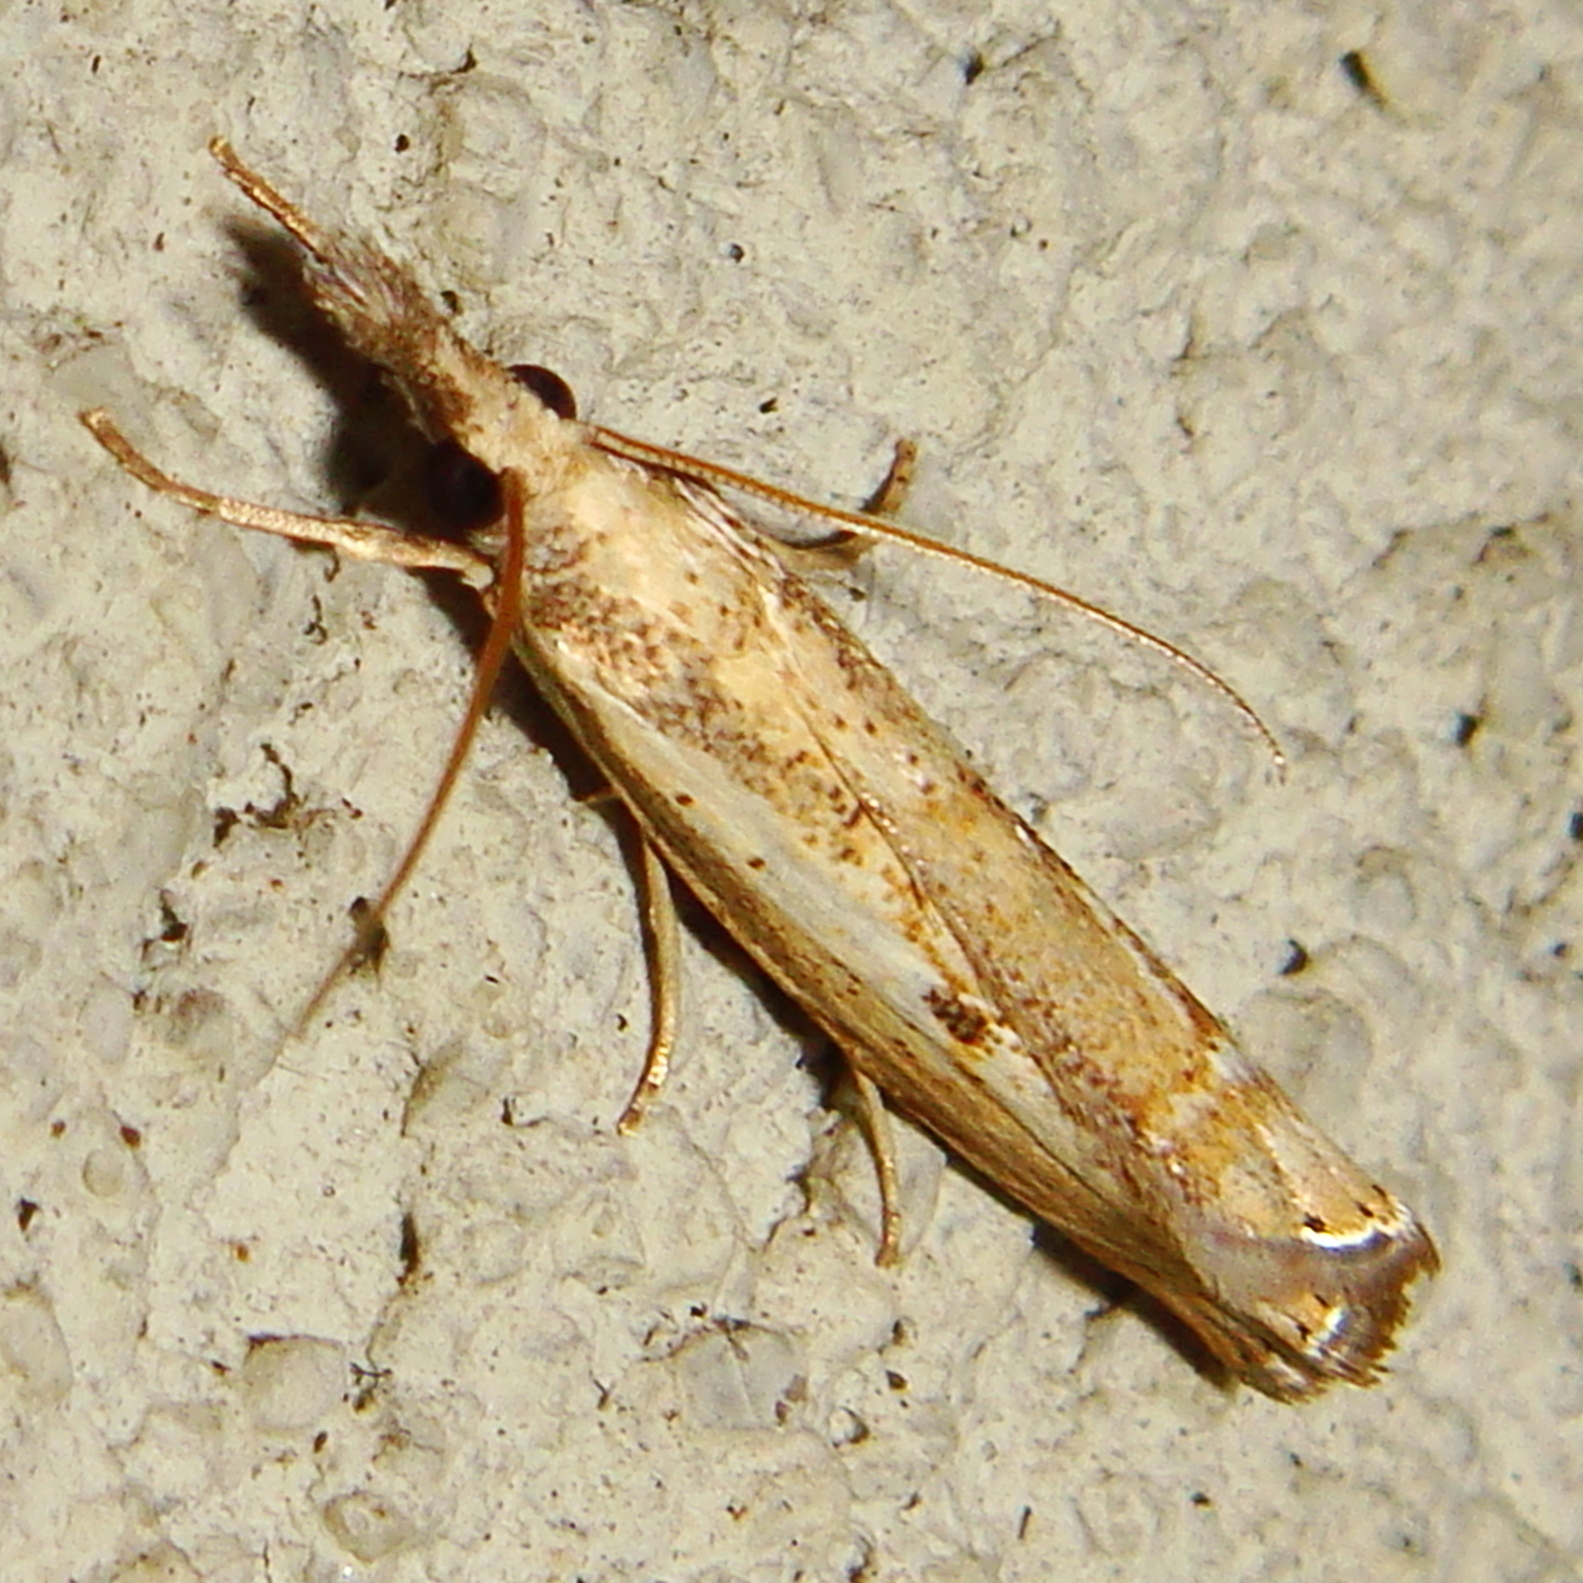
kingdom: Animalia
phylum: Arthropoda
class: Insecta
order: Lepidoptera
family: Crambidae
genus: Agriphila
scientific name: Agriphila inquinatella
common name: Barred grass-veneer
